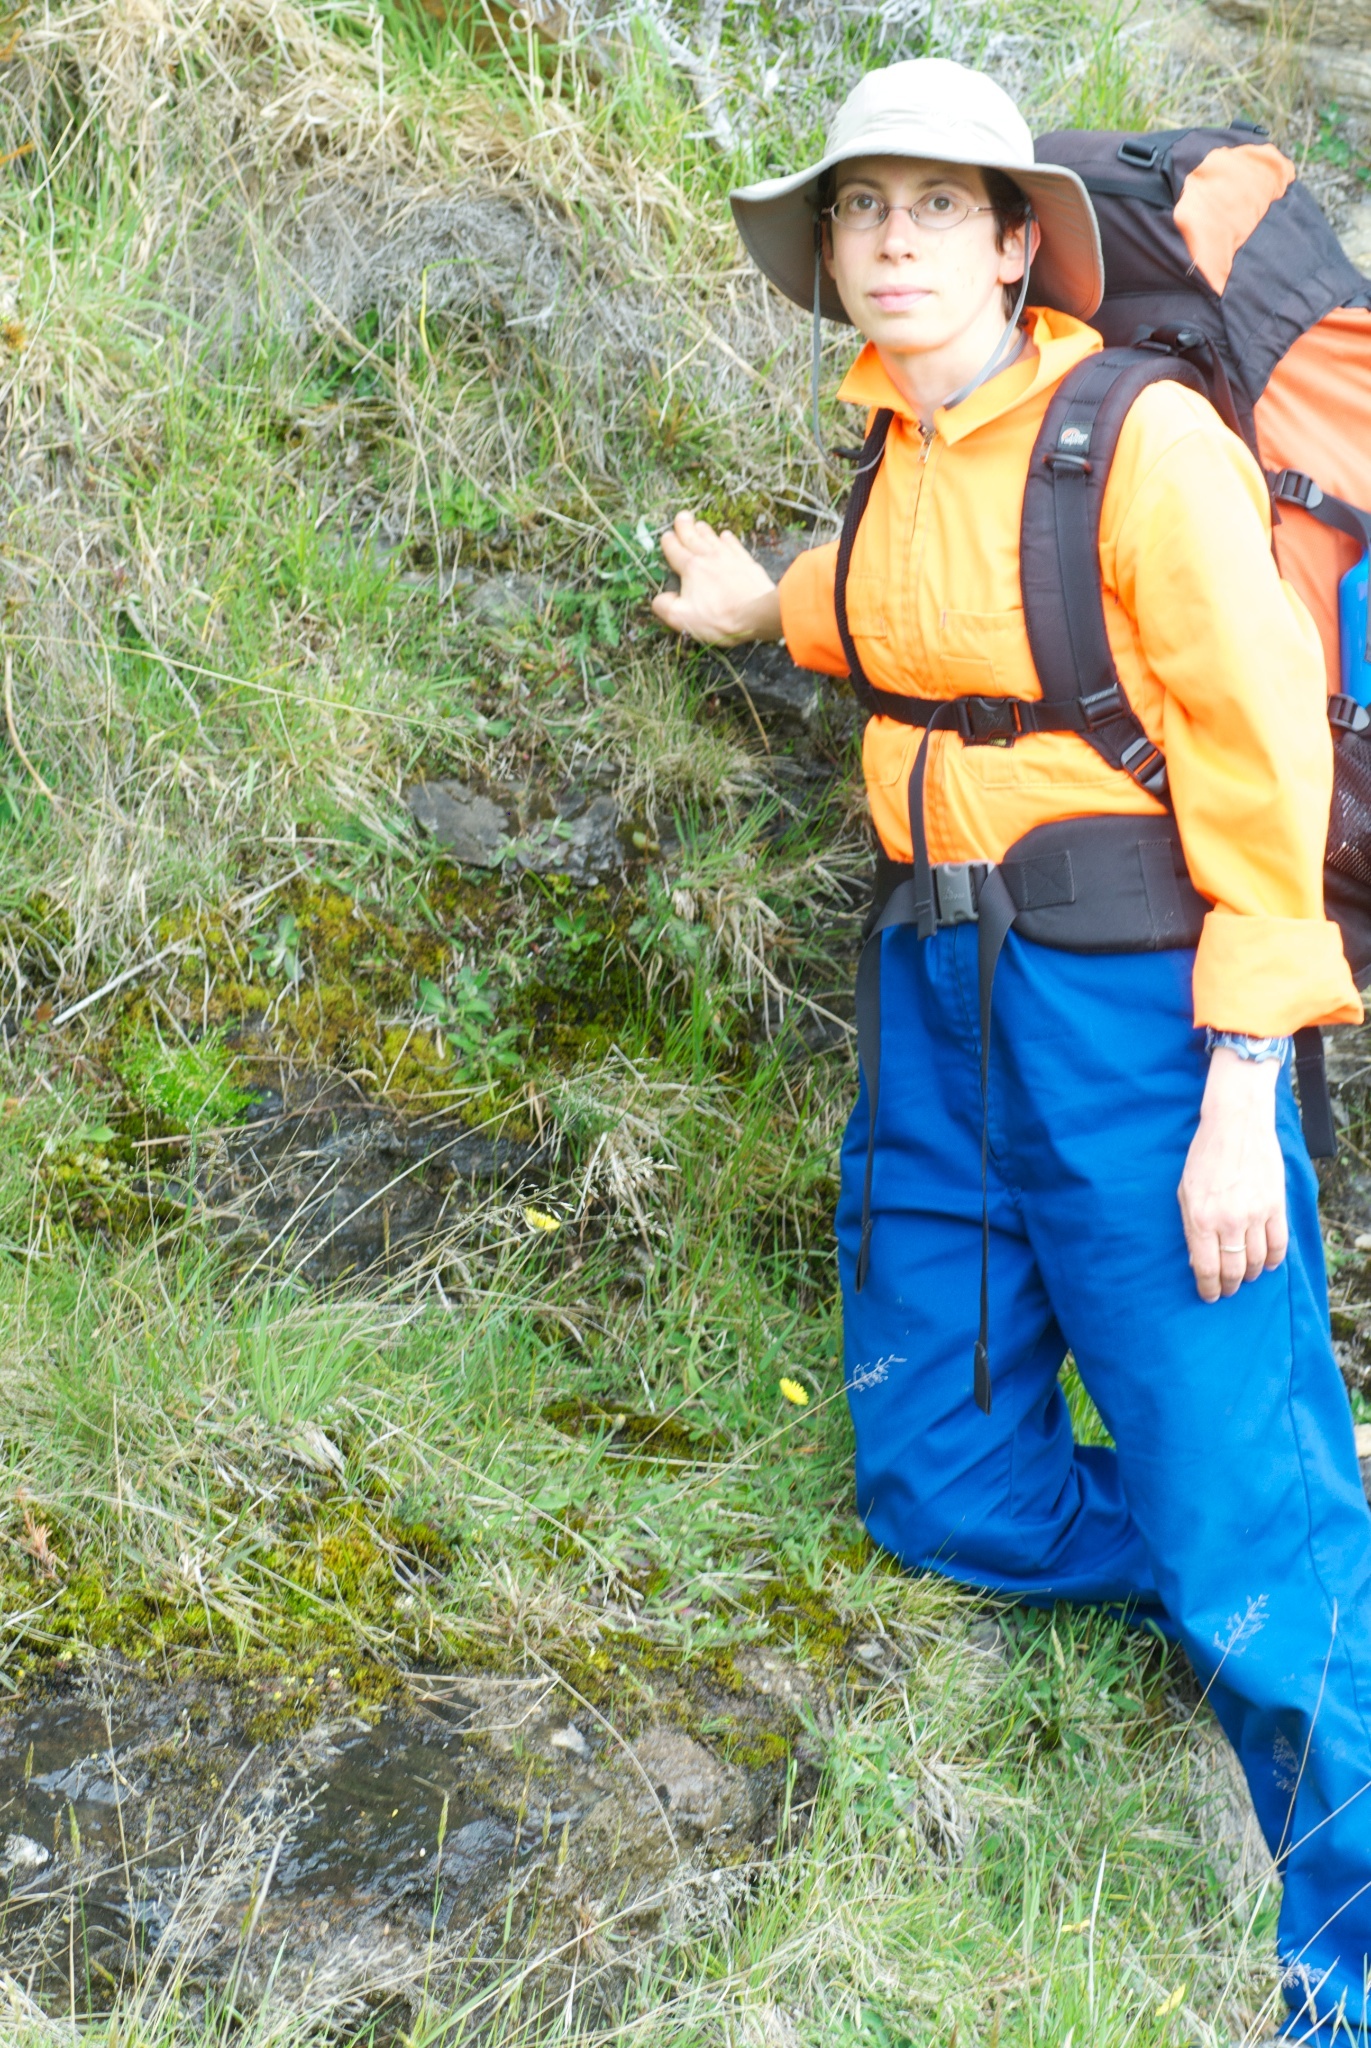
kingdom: Plantae
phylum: Tracheophyta
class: Magnoliopsida
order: Malpighiales
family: Linaceae
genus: Linum
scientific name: Linum catharticum
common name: Fairy flax
